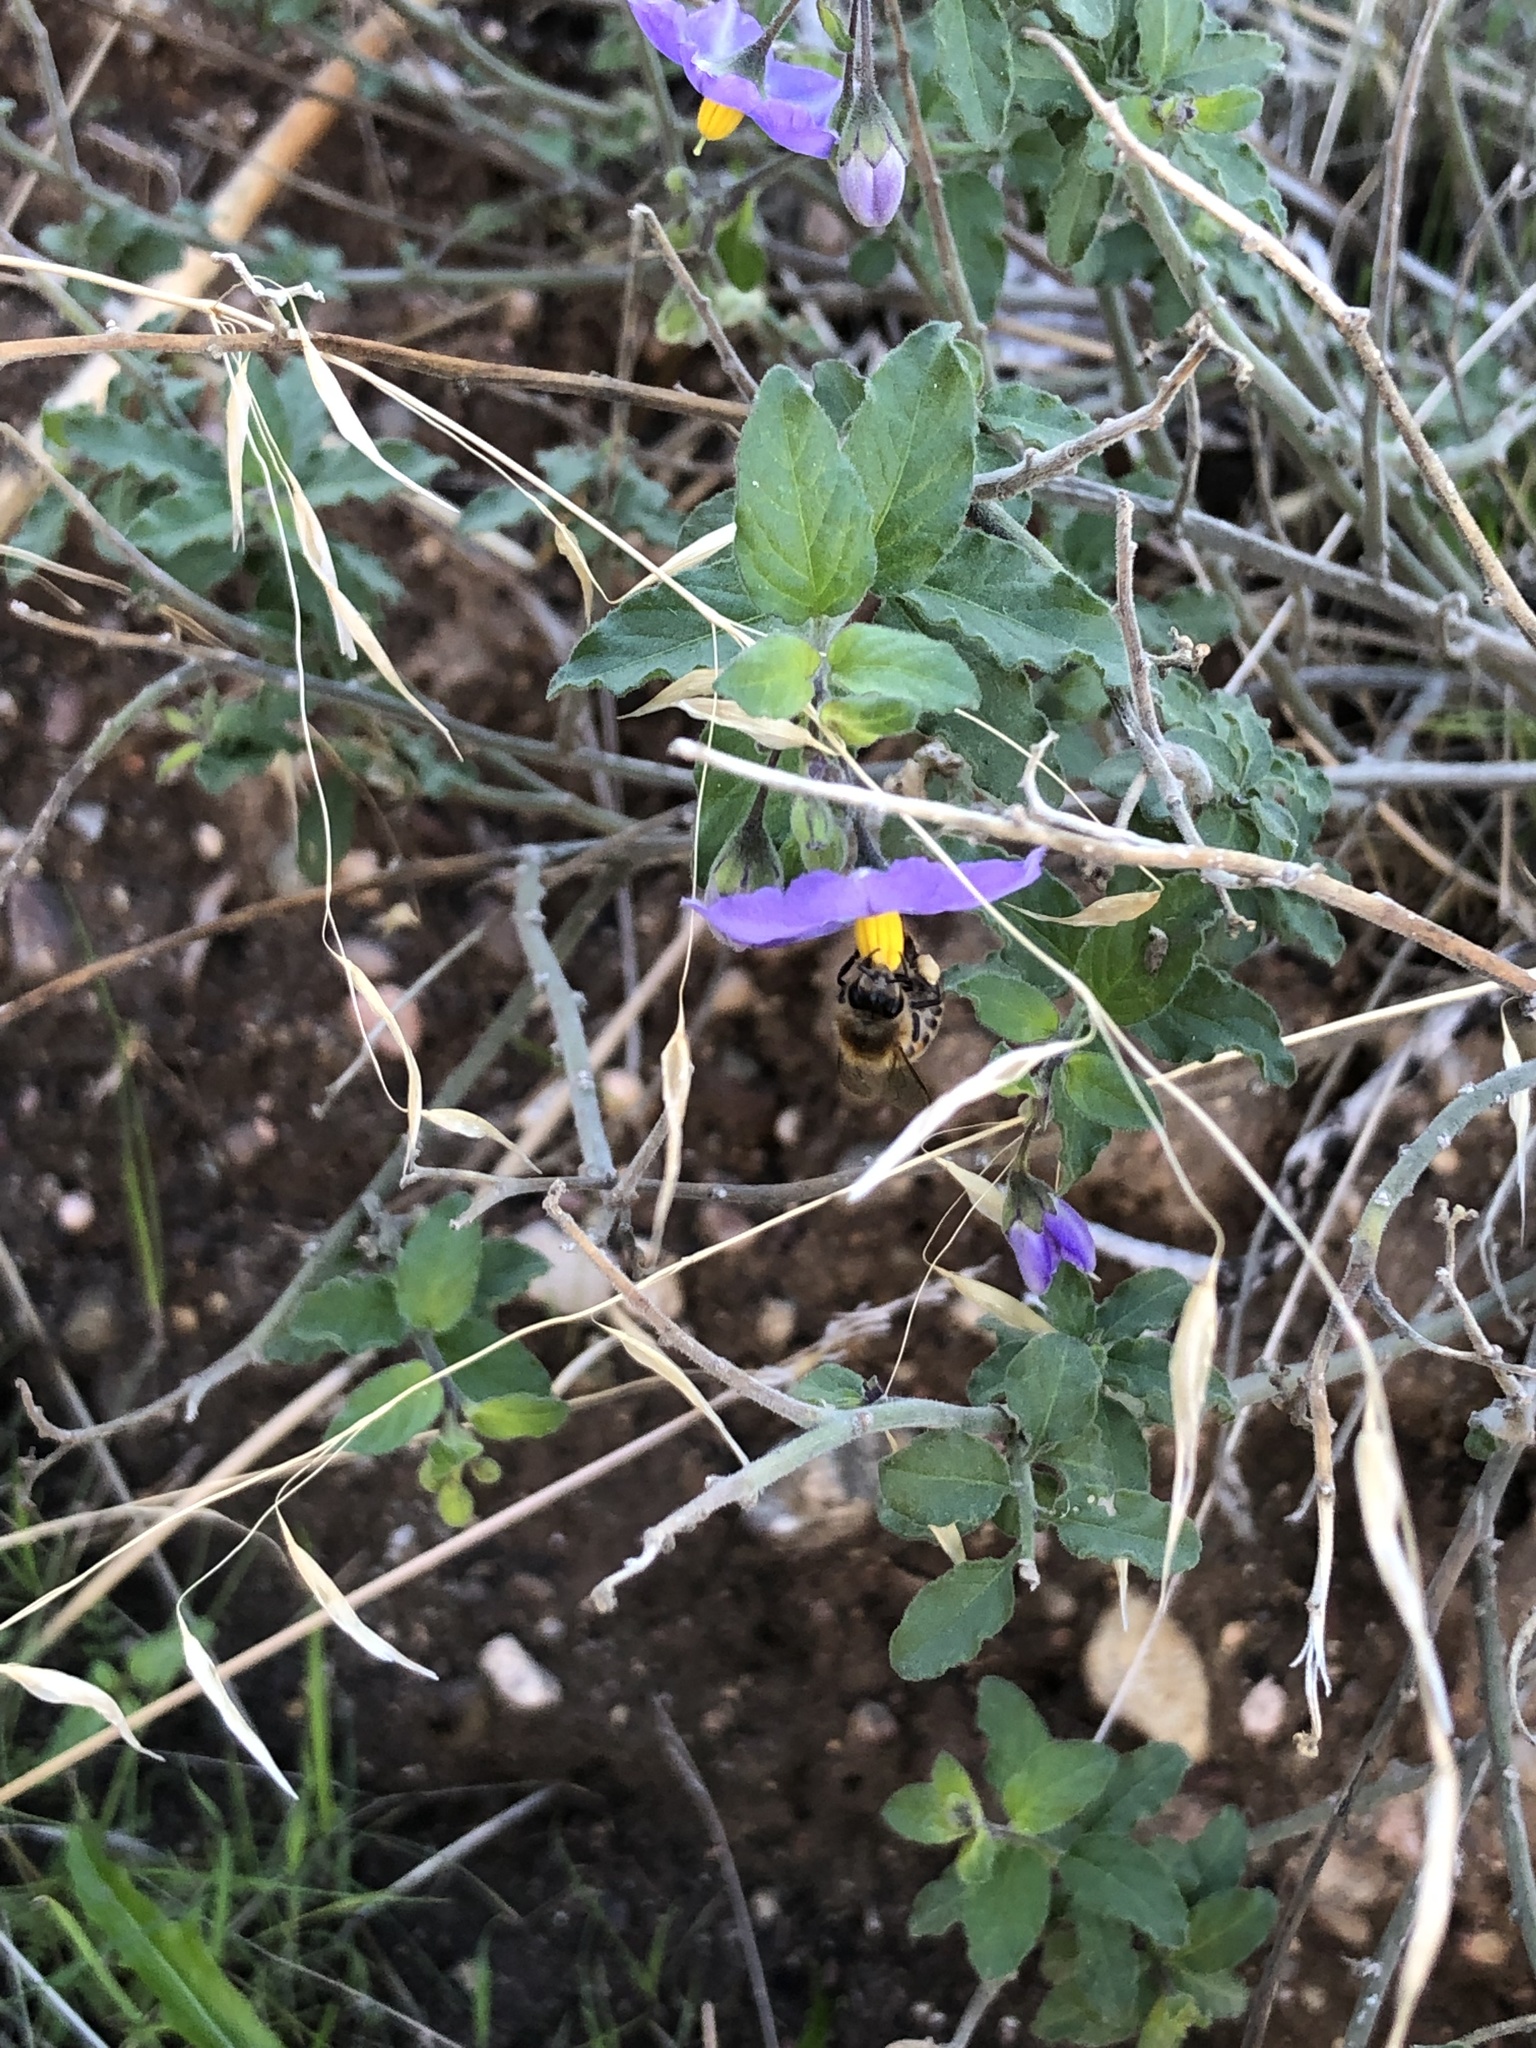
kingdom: Animalia
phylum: Arthropoda
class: Insecta
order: Hymenoptera
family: Apidae
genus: Apis
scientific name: Apis mellifera
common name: Honey bee
